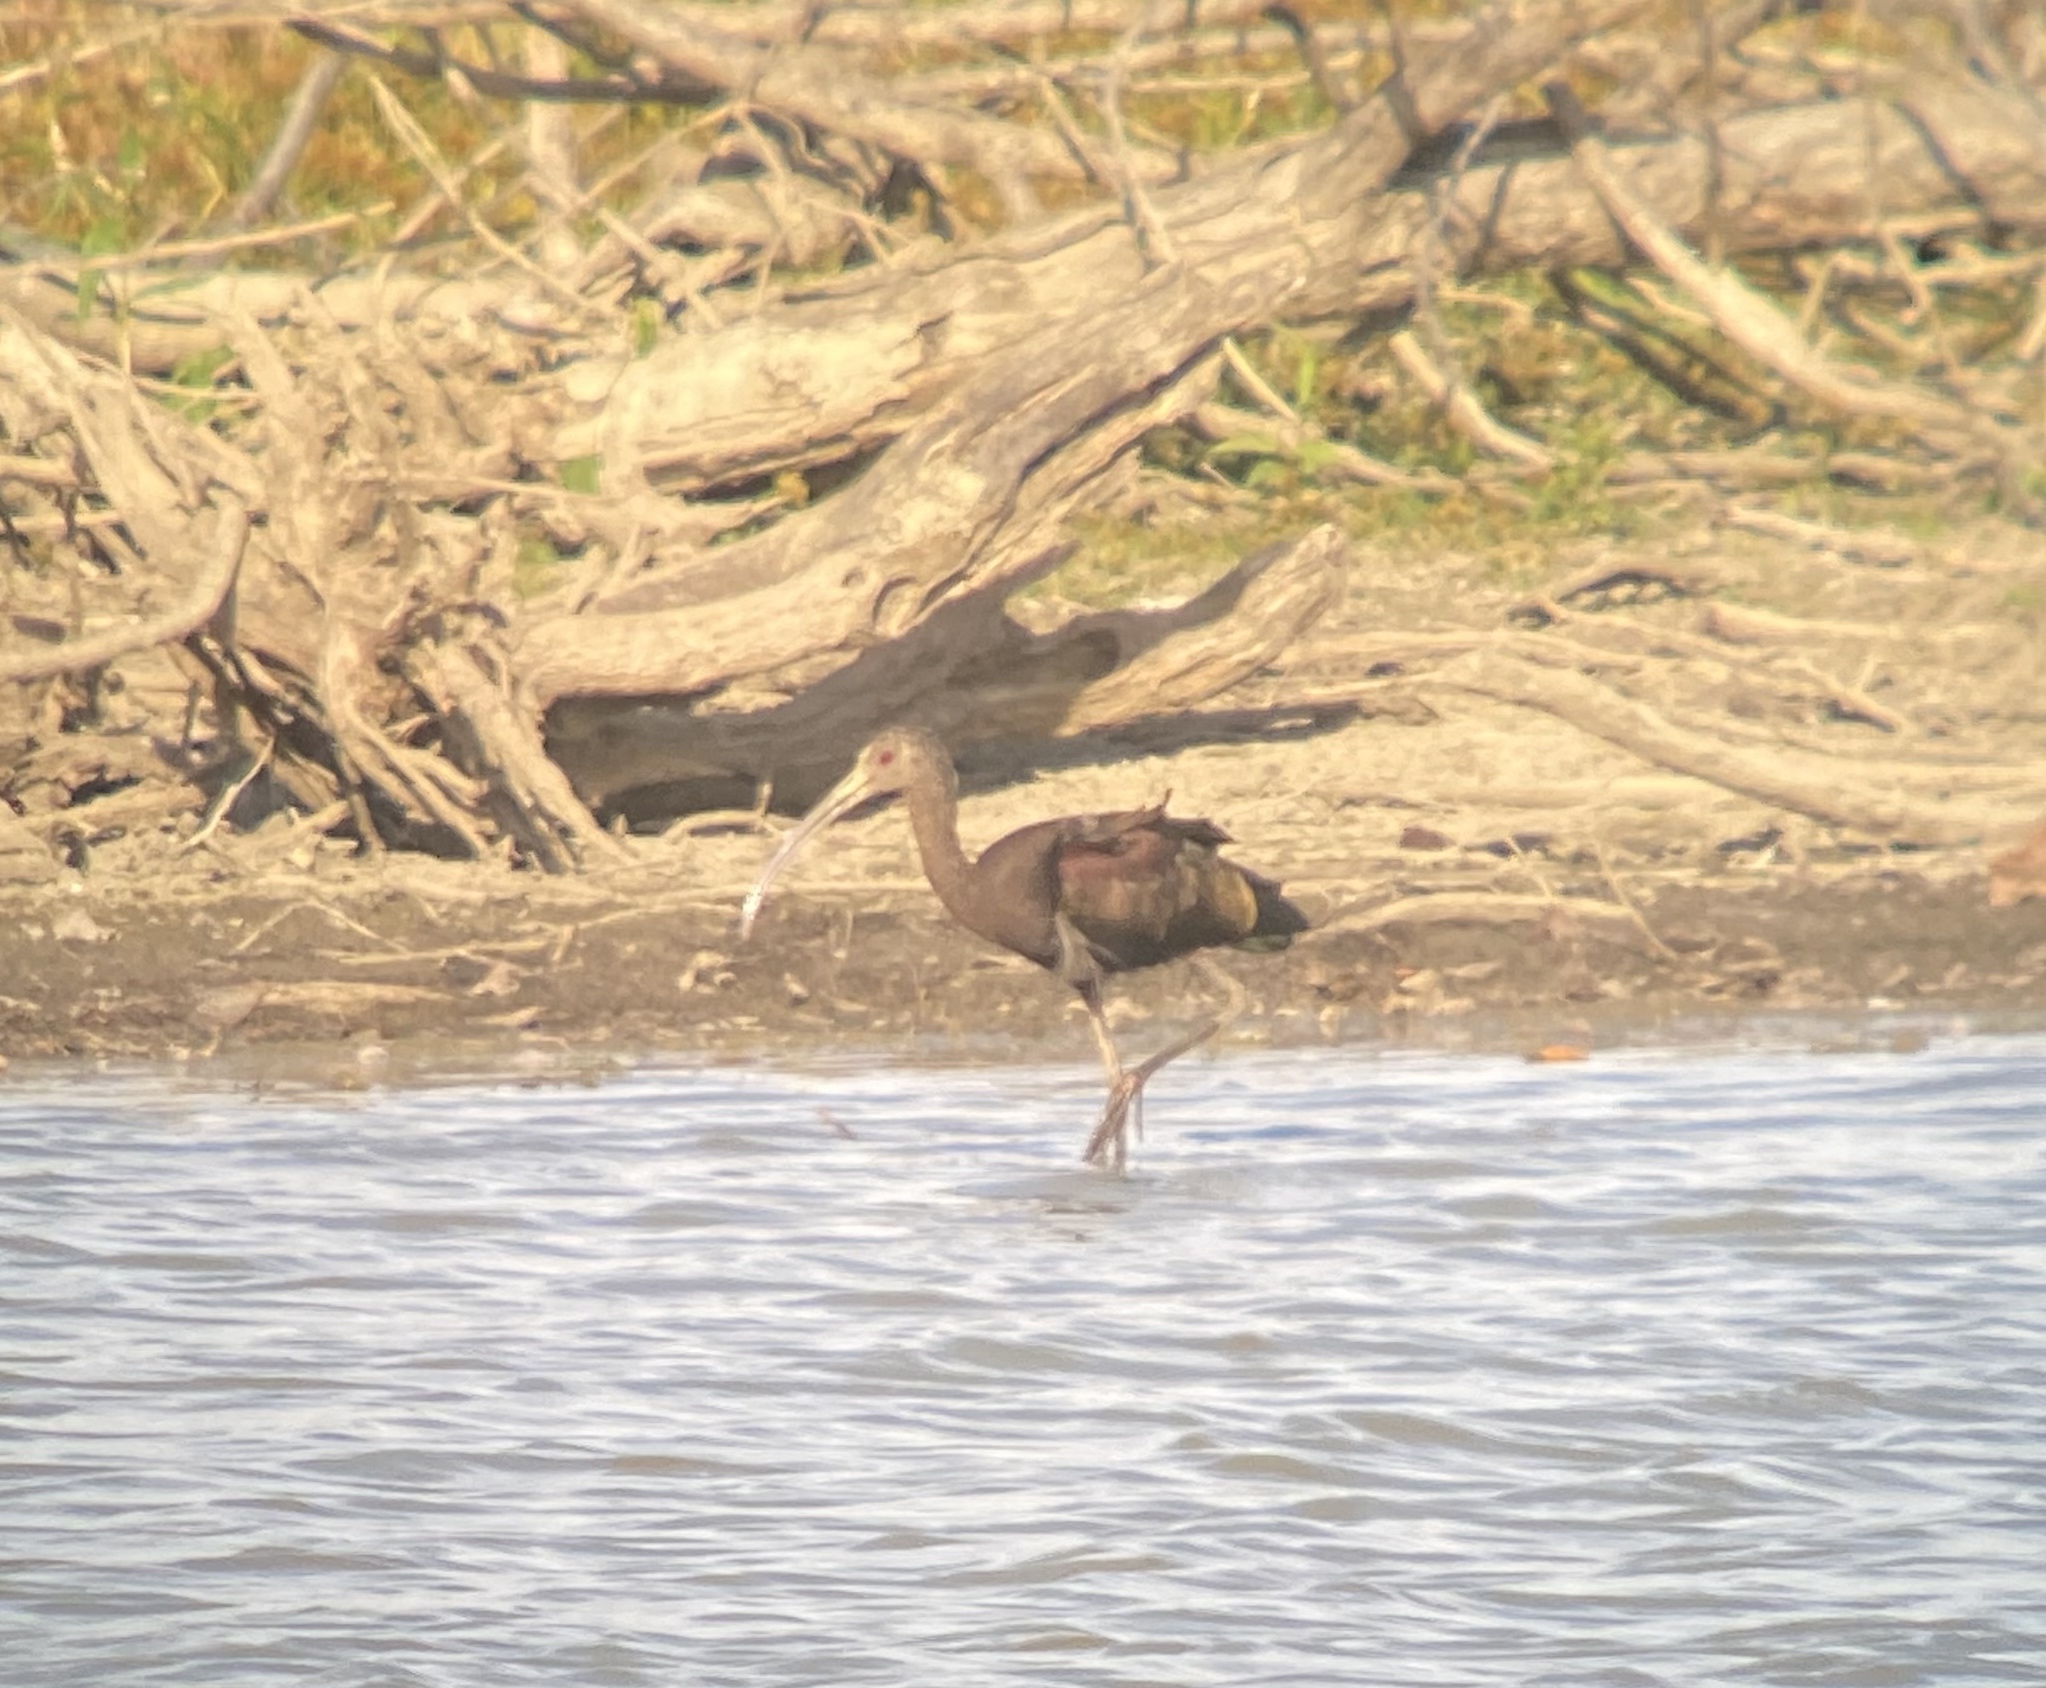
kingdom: Animalia
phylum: Chordata
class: Aves
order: Pelecaniformes
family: Threskiornithidae
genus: Plegadis
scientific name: Plegadis chihi
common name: White-faced ibis
